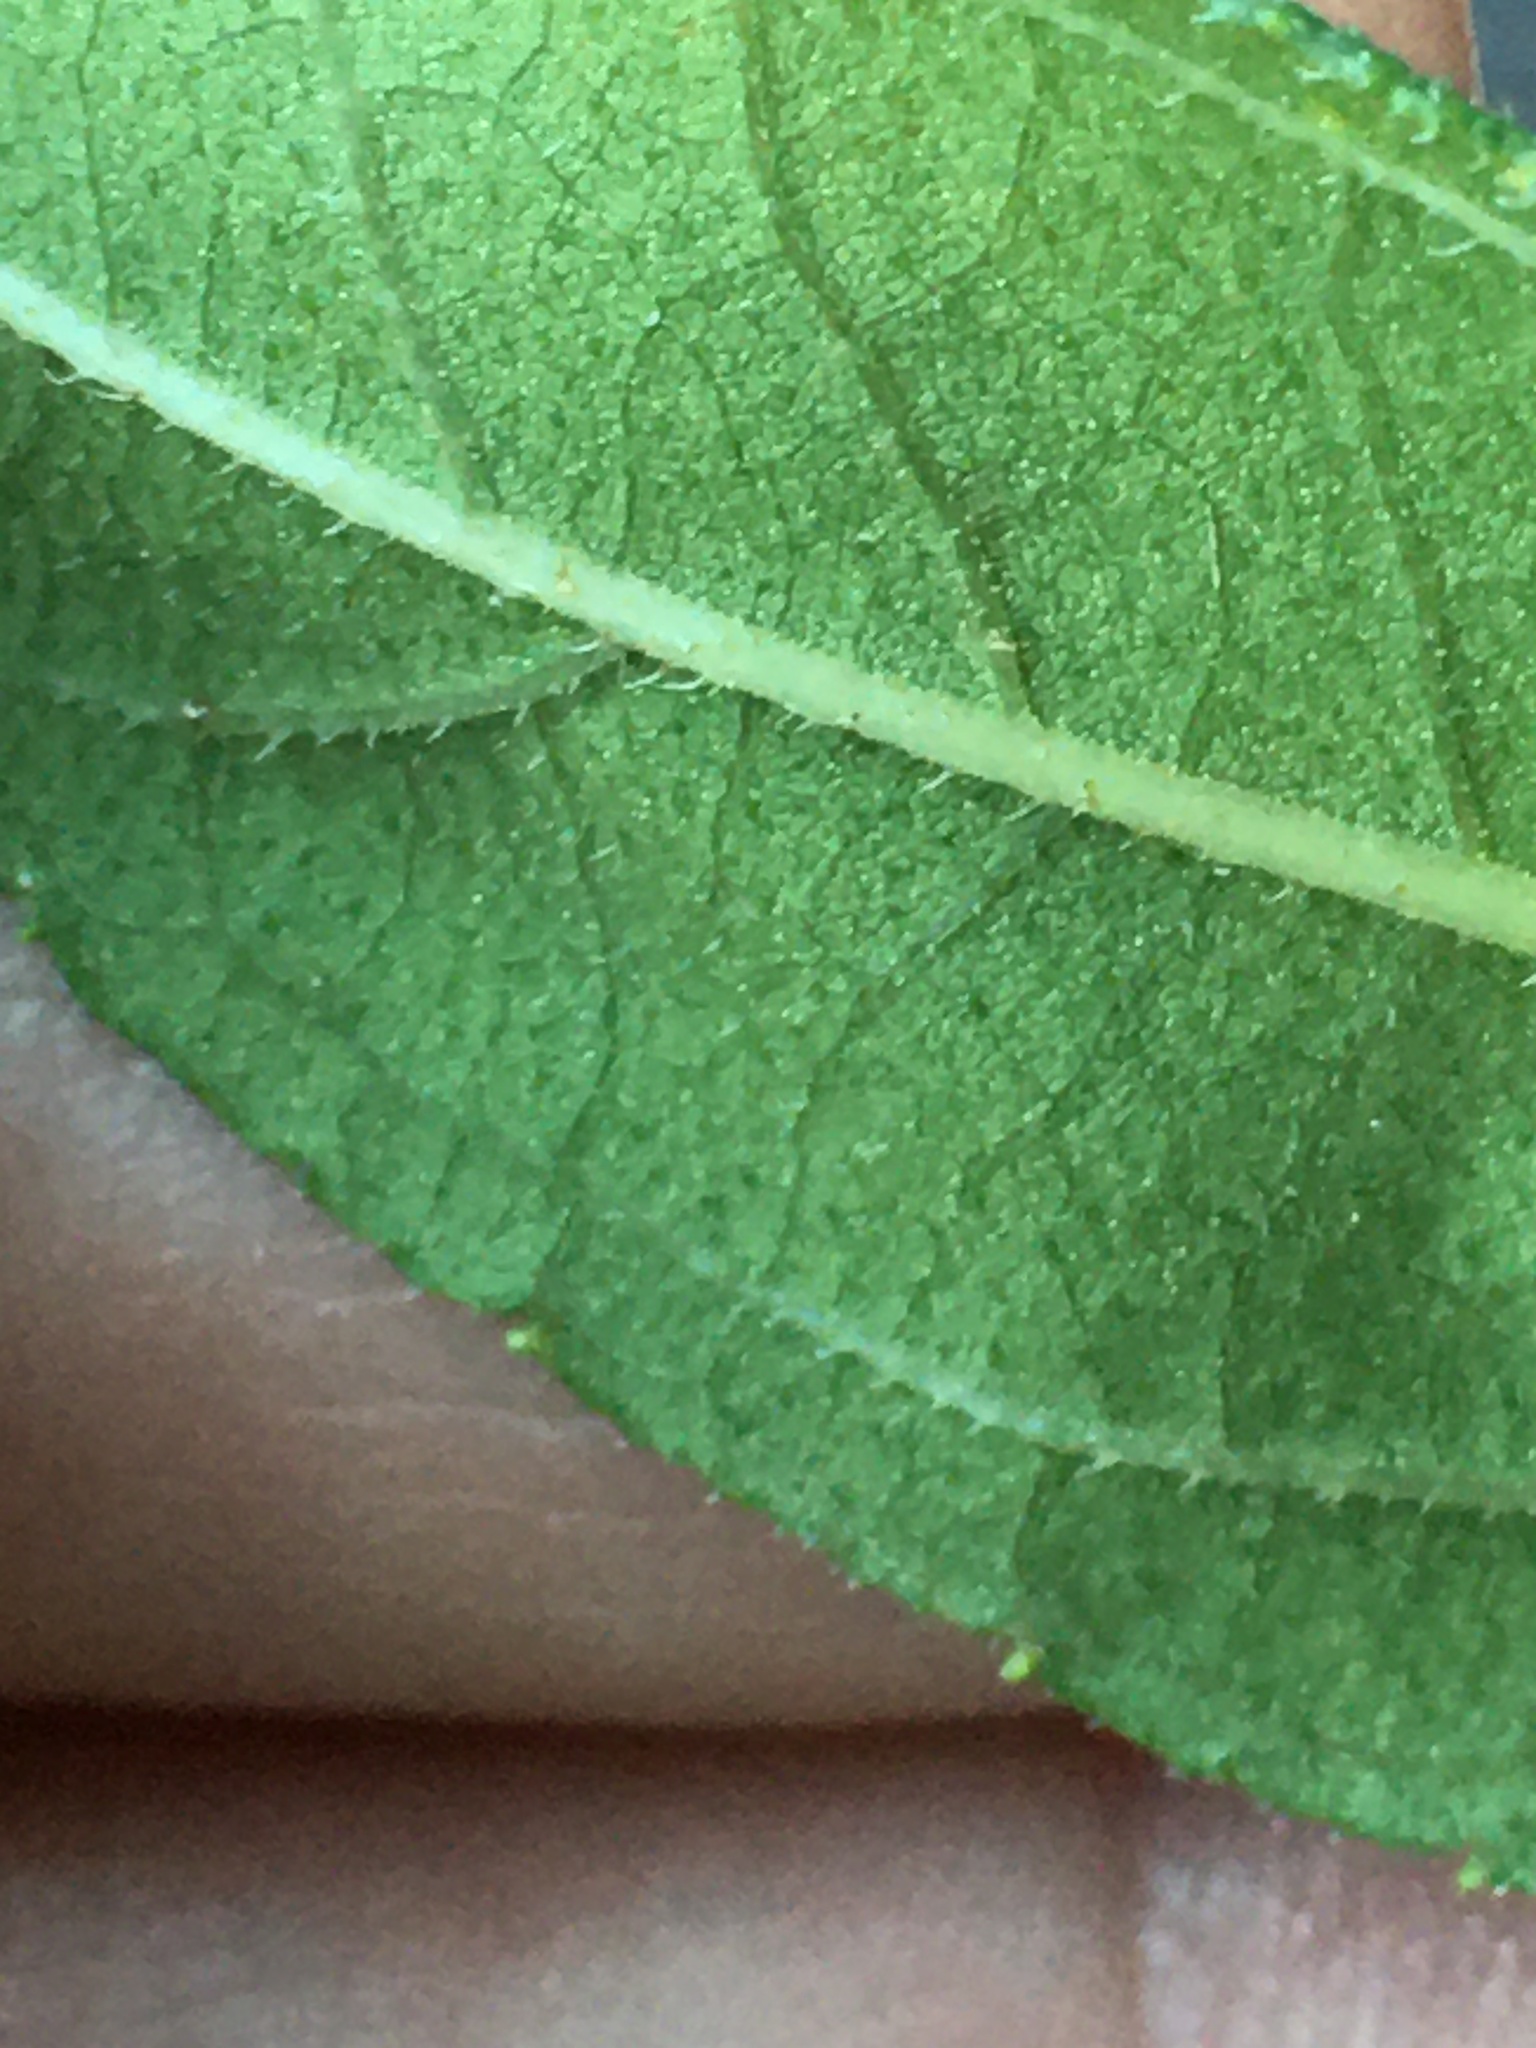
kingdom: Plantae
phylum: Tracheophyta
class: Magnoliopsida
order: Asterales
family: Asteraceae
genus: Helianthus
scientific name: Helianthus divaricatus
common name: Divergent sunflower
